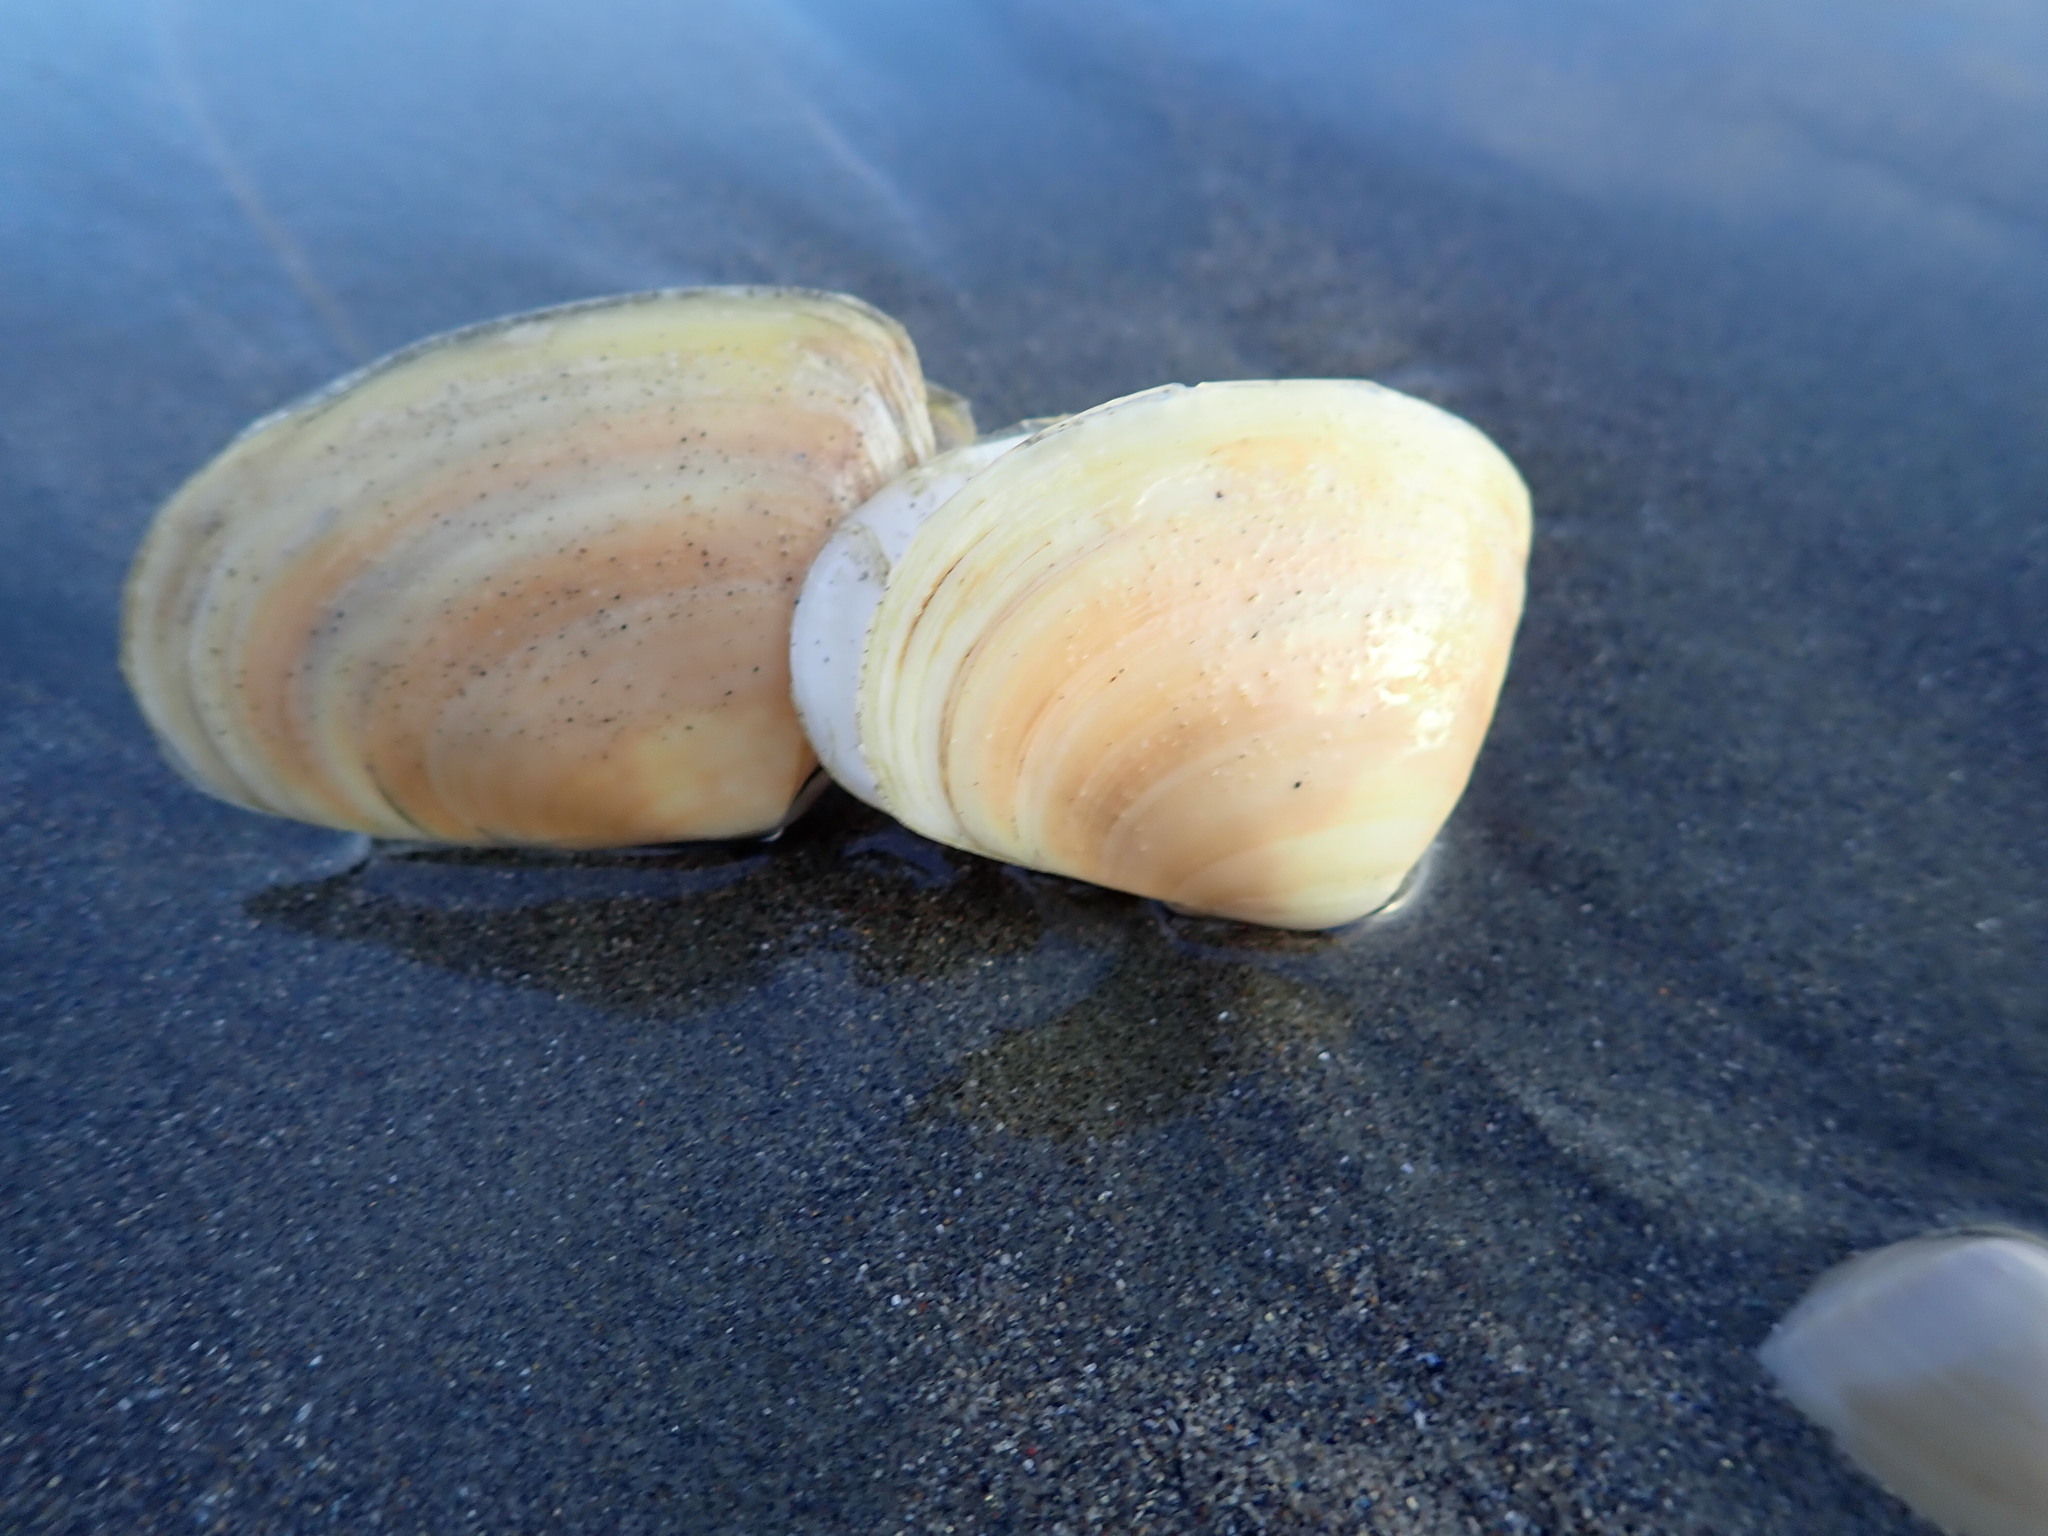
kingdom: Animalia
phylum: Mollusca
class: Bivalvia
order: Venerida
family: Mesodesmatidae
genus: Paphies
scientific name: Paphies donacina
